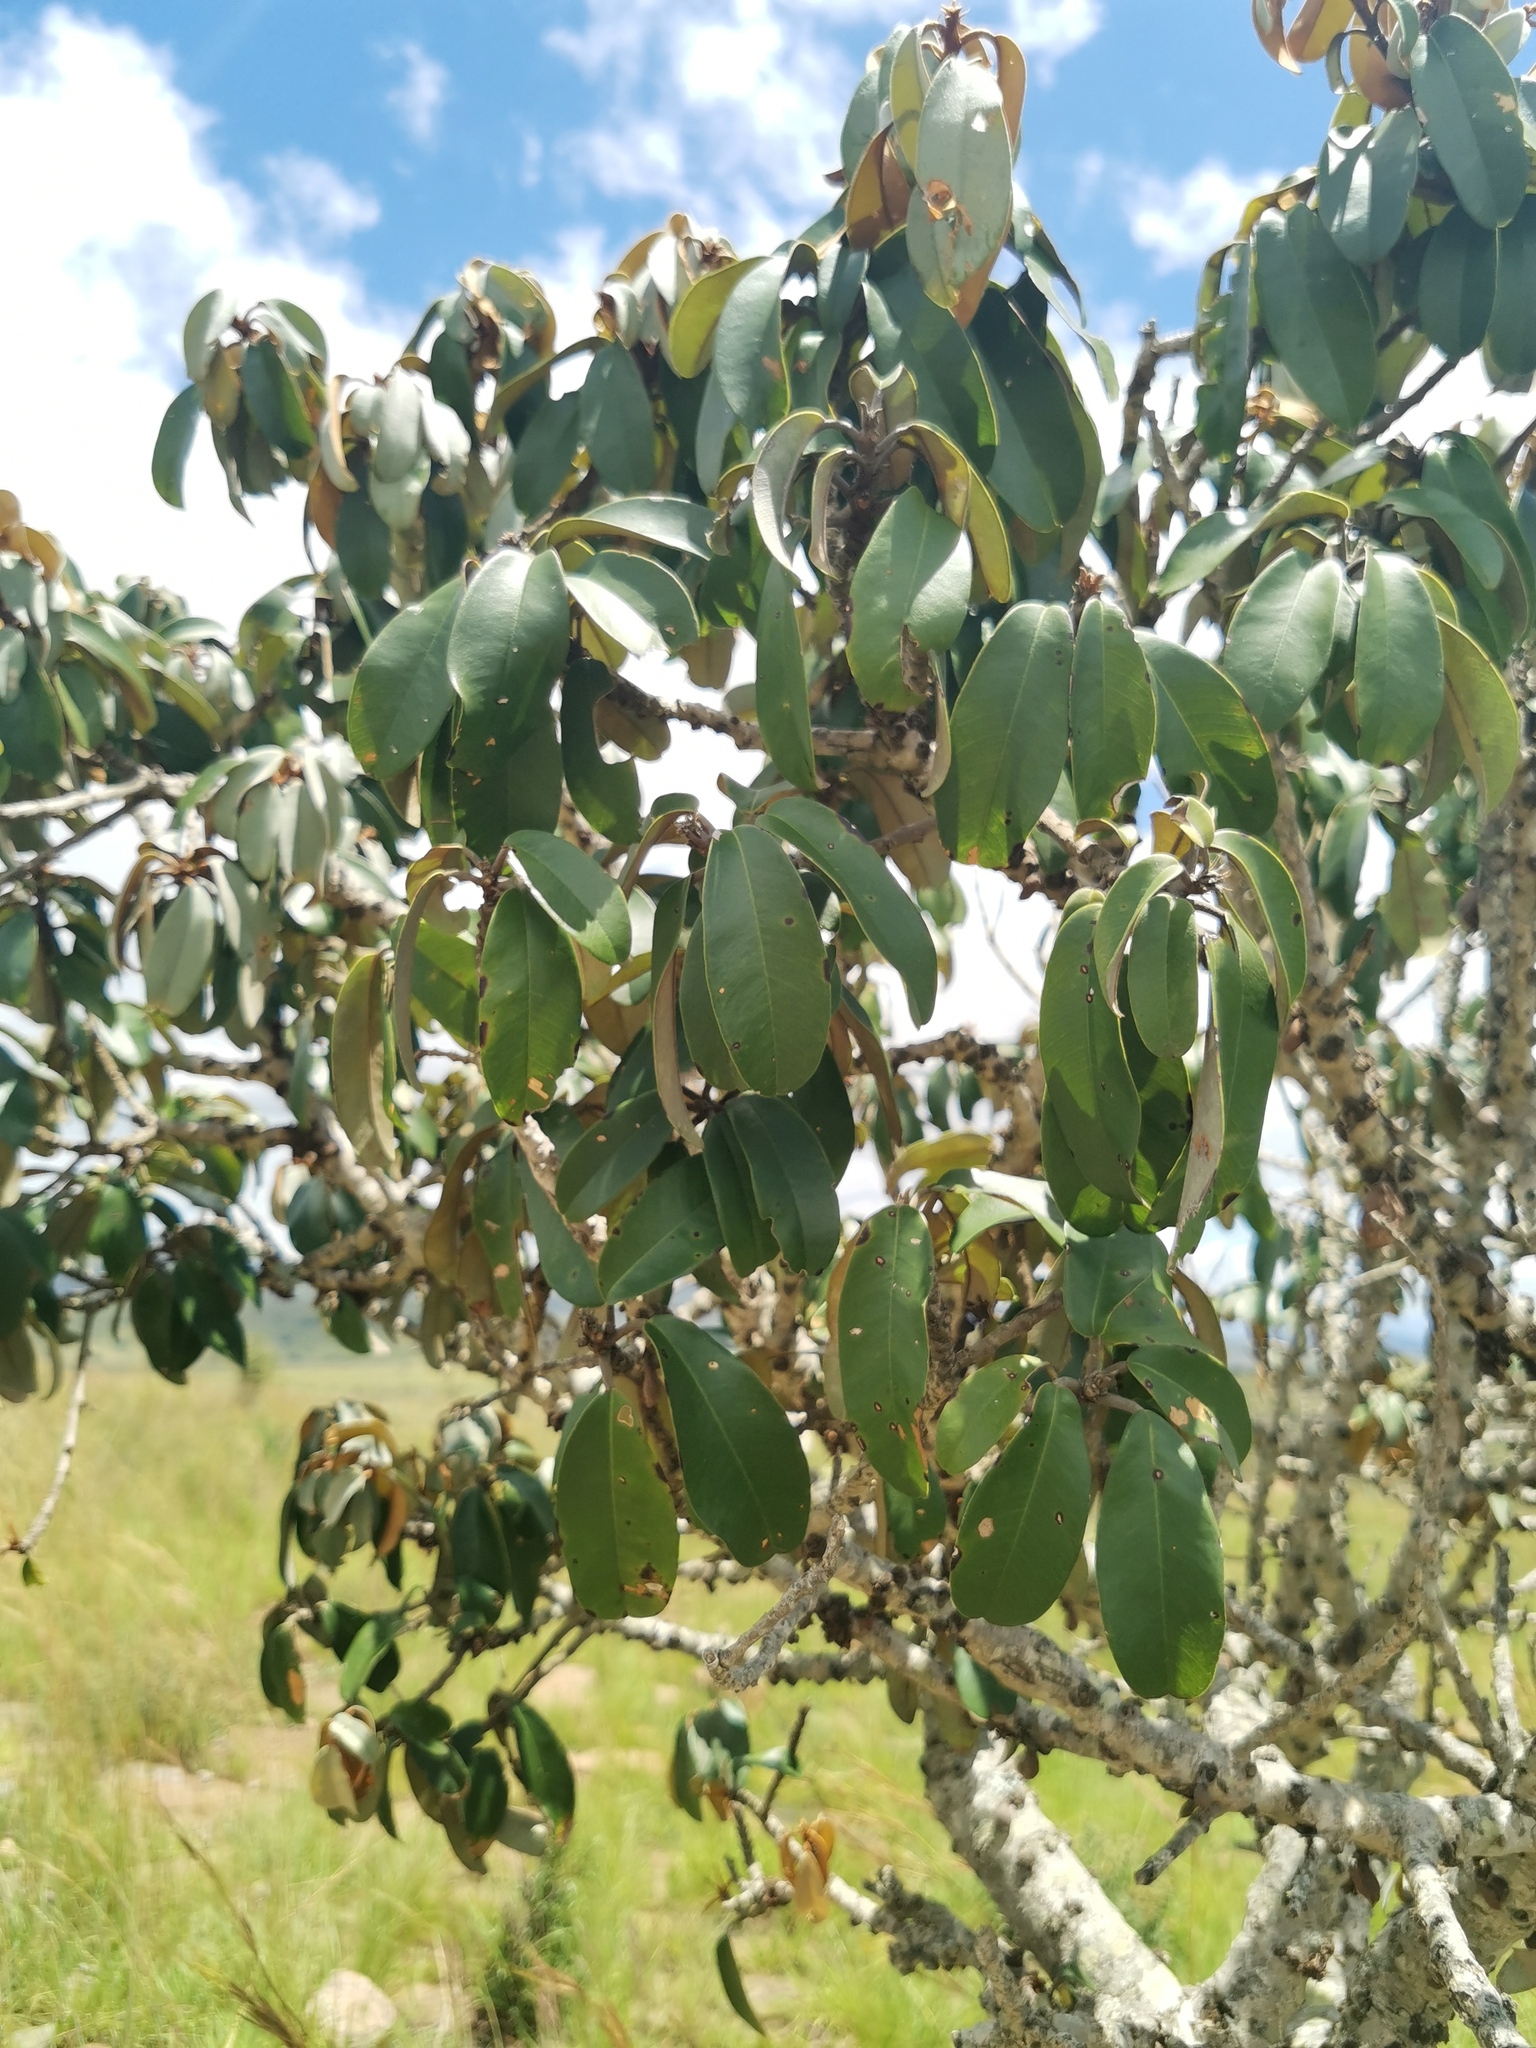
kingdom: Plantae
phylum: Tracheophyta
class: Magnoliopsida
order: Ericales
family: Sapotaceae
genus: Englerophytum
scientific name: Englerophytum magalismontanum
